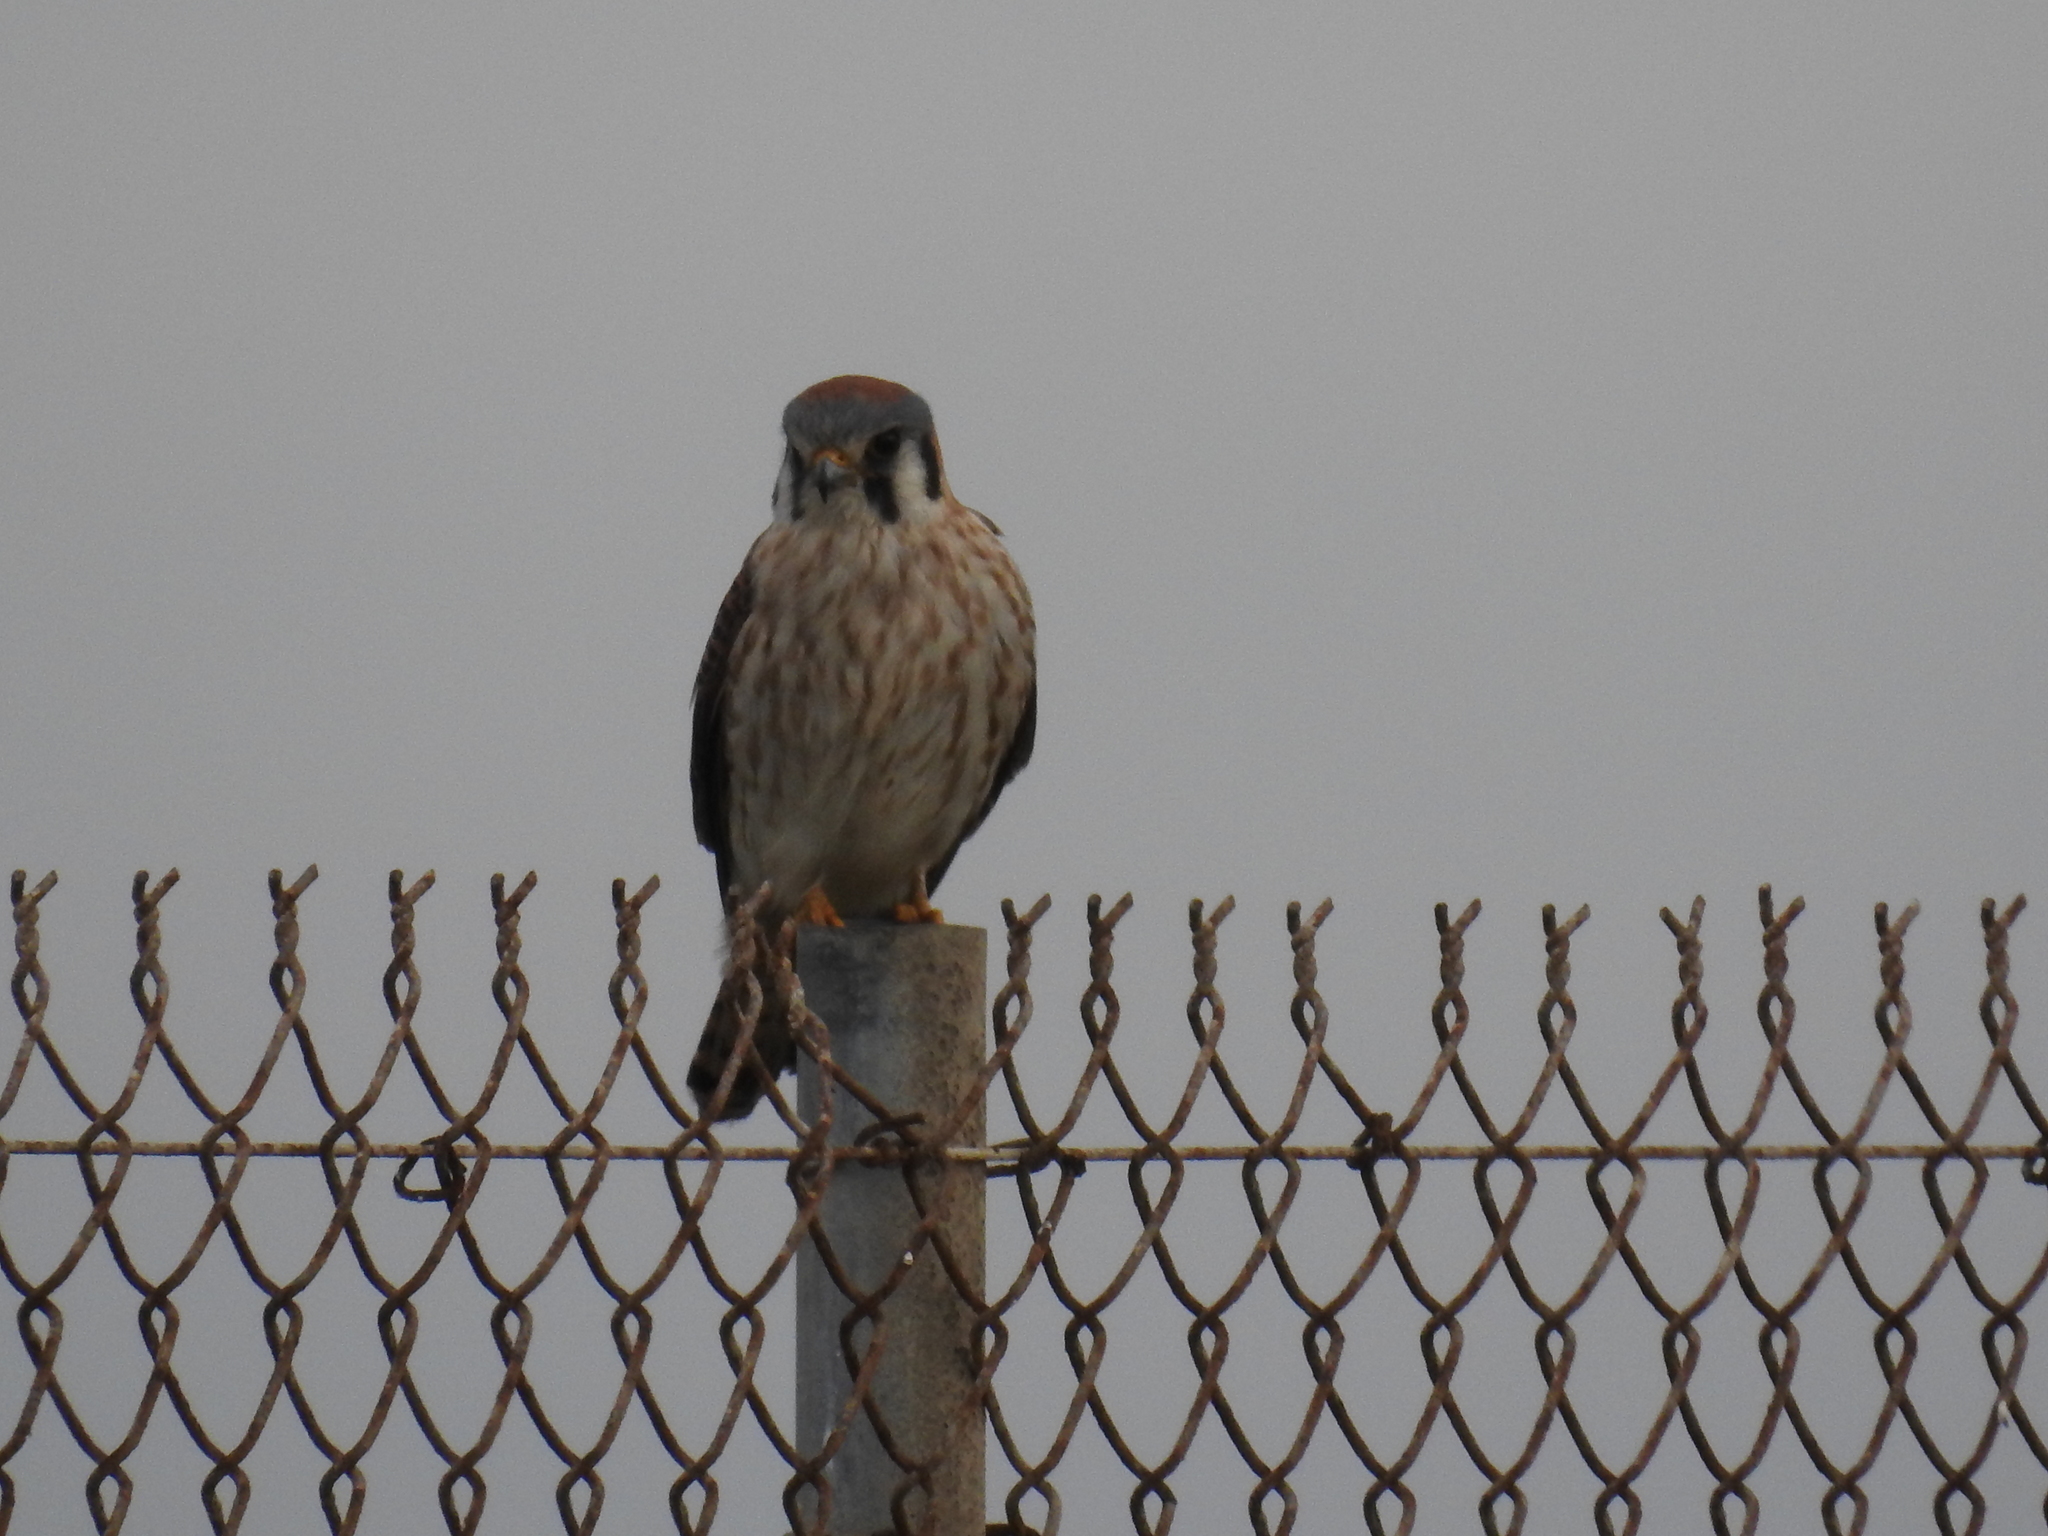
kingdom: Animalia
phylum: Chordata
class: Aves
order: Falconiformes
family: Falconidae
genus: Falco
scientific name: Falco sparverius
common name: American kestrel
